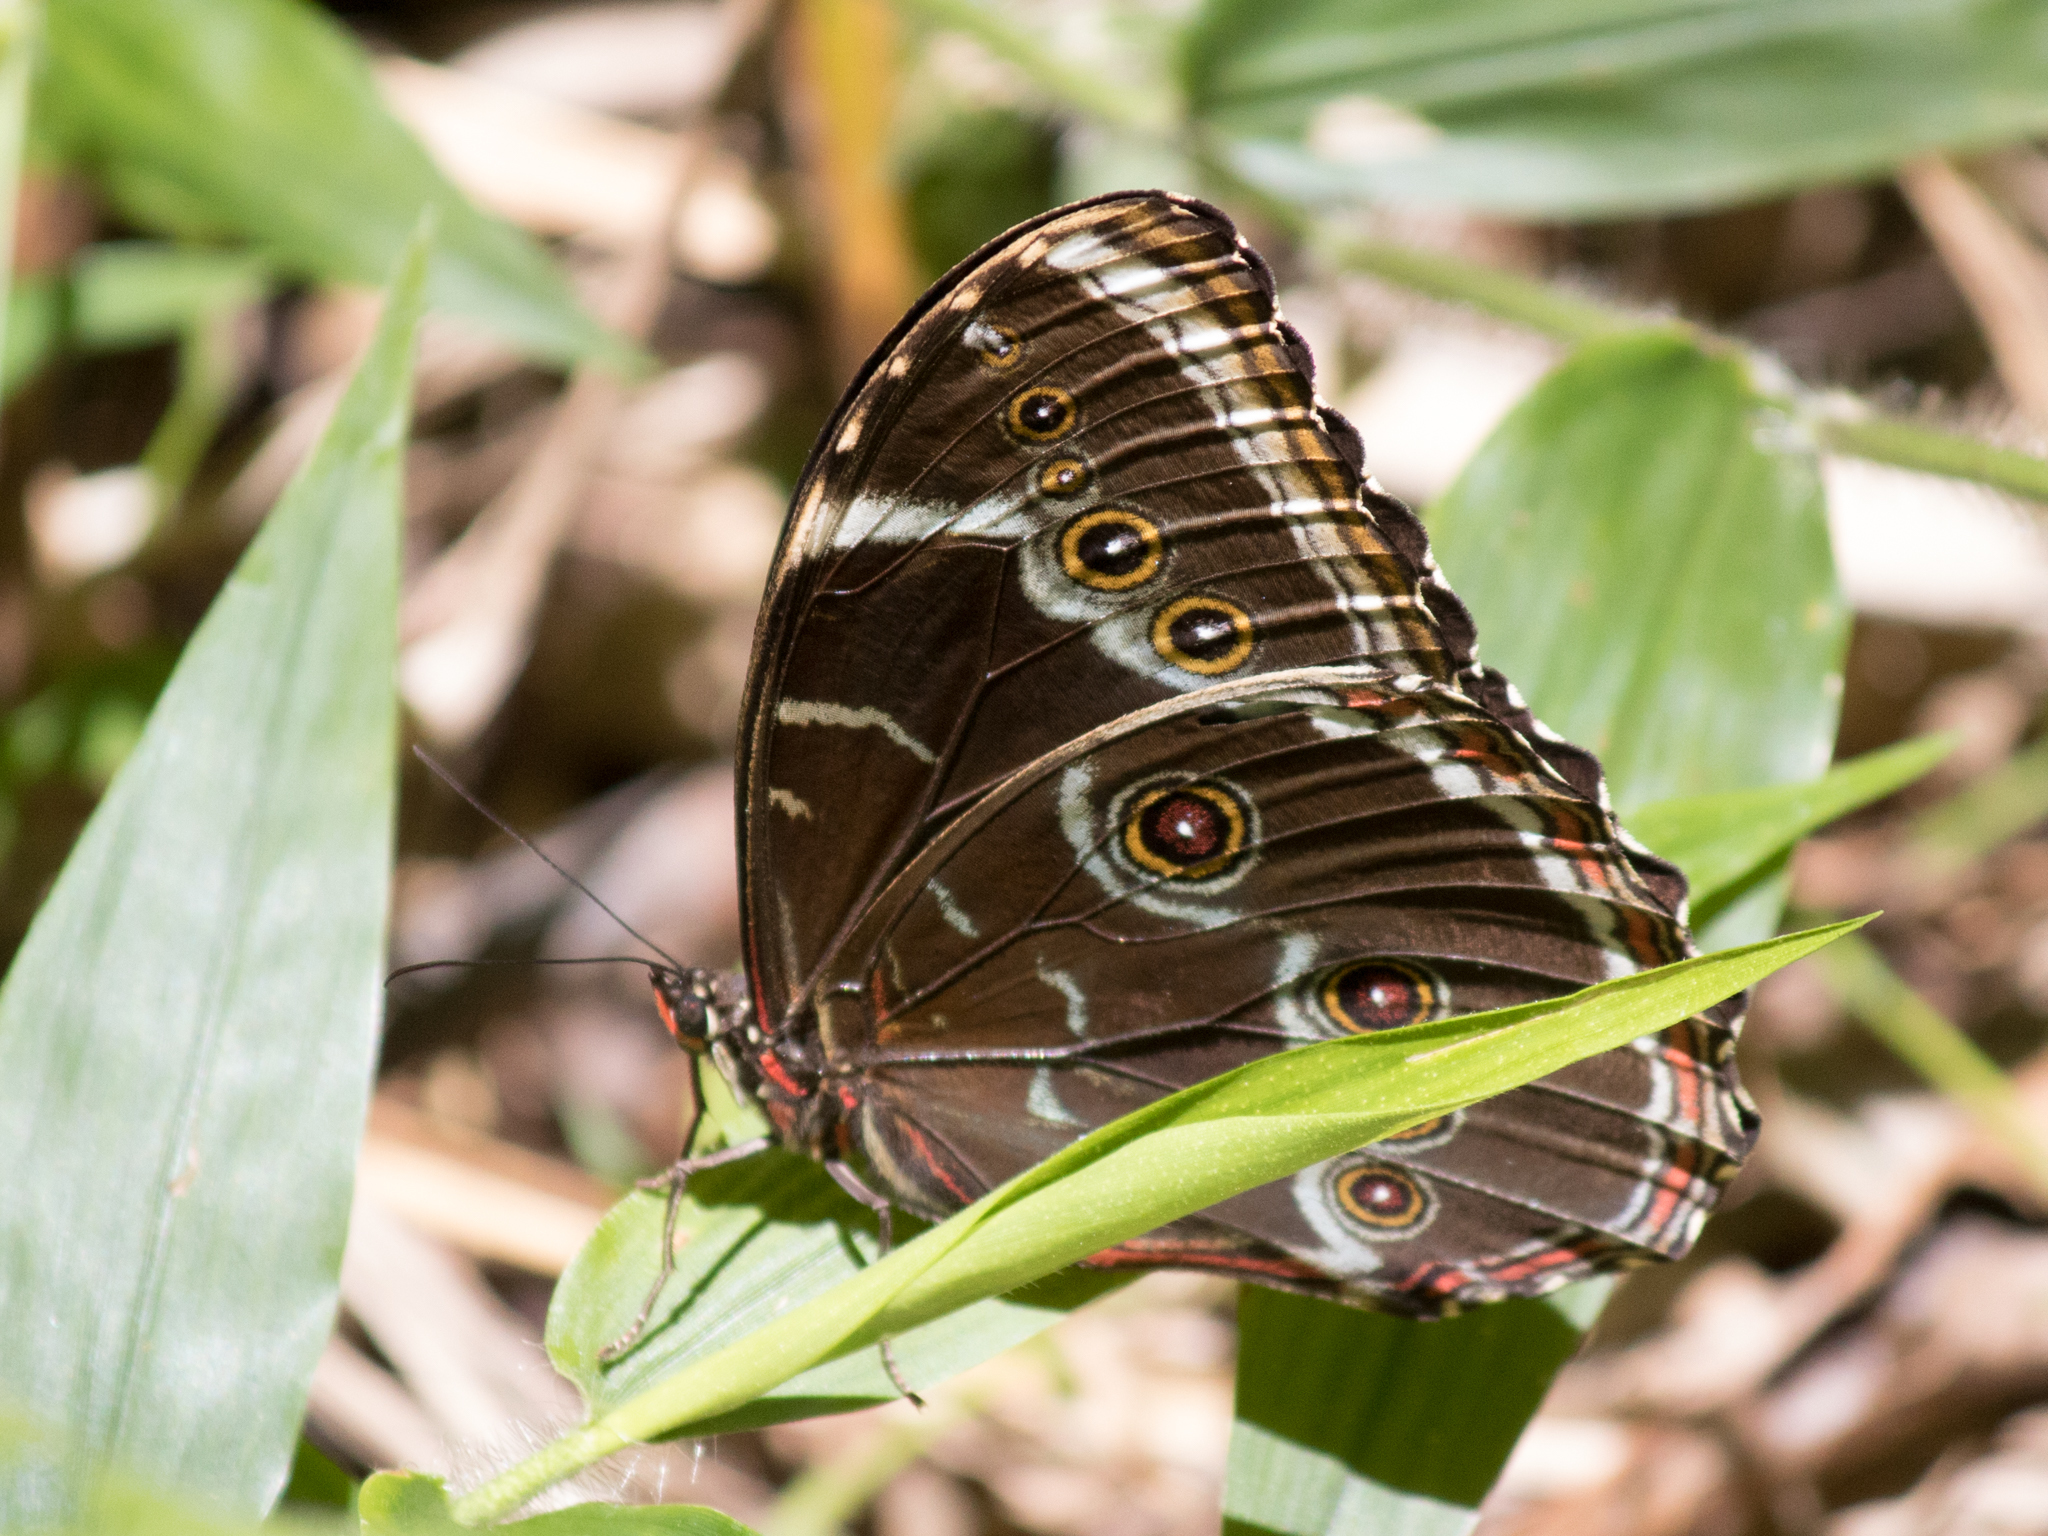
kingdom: Animalia
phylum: Arthropoda
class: Insecta
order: Lepidoptera
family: Nymphalidae
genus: Morpho
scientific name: Morpho helenor
